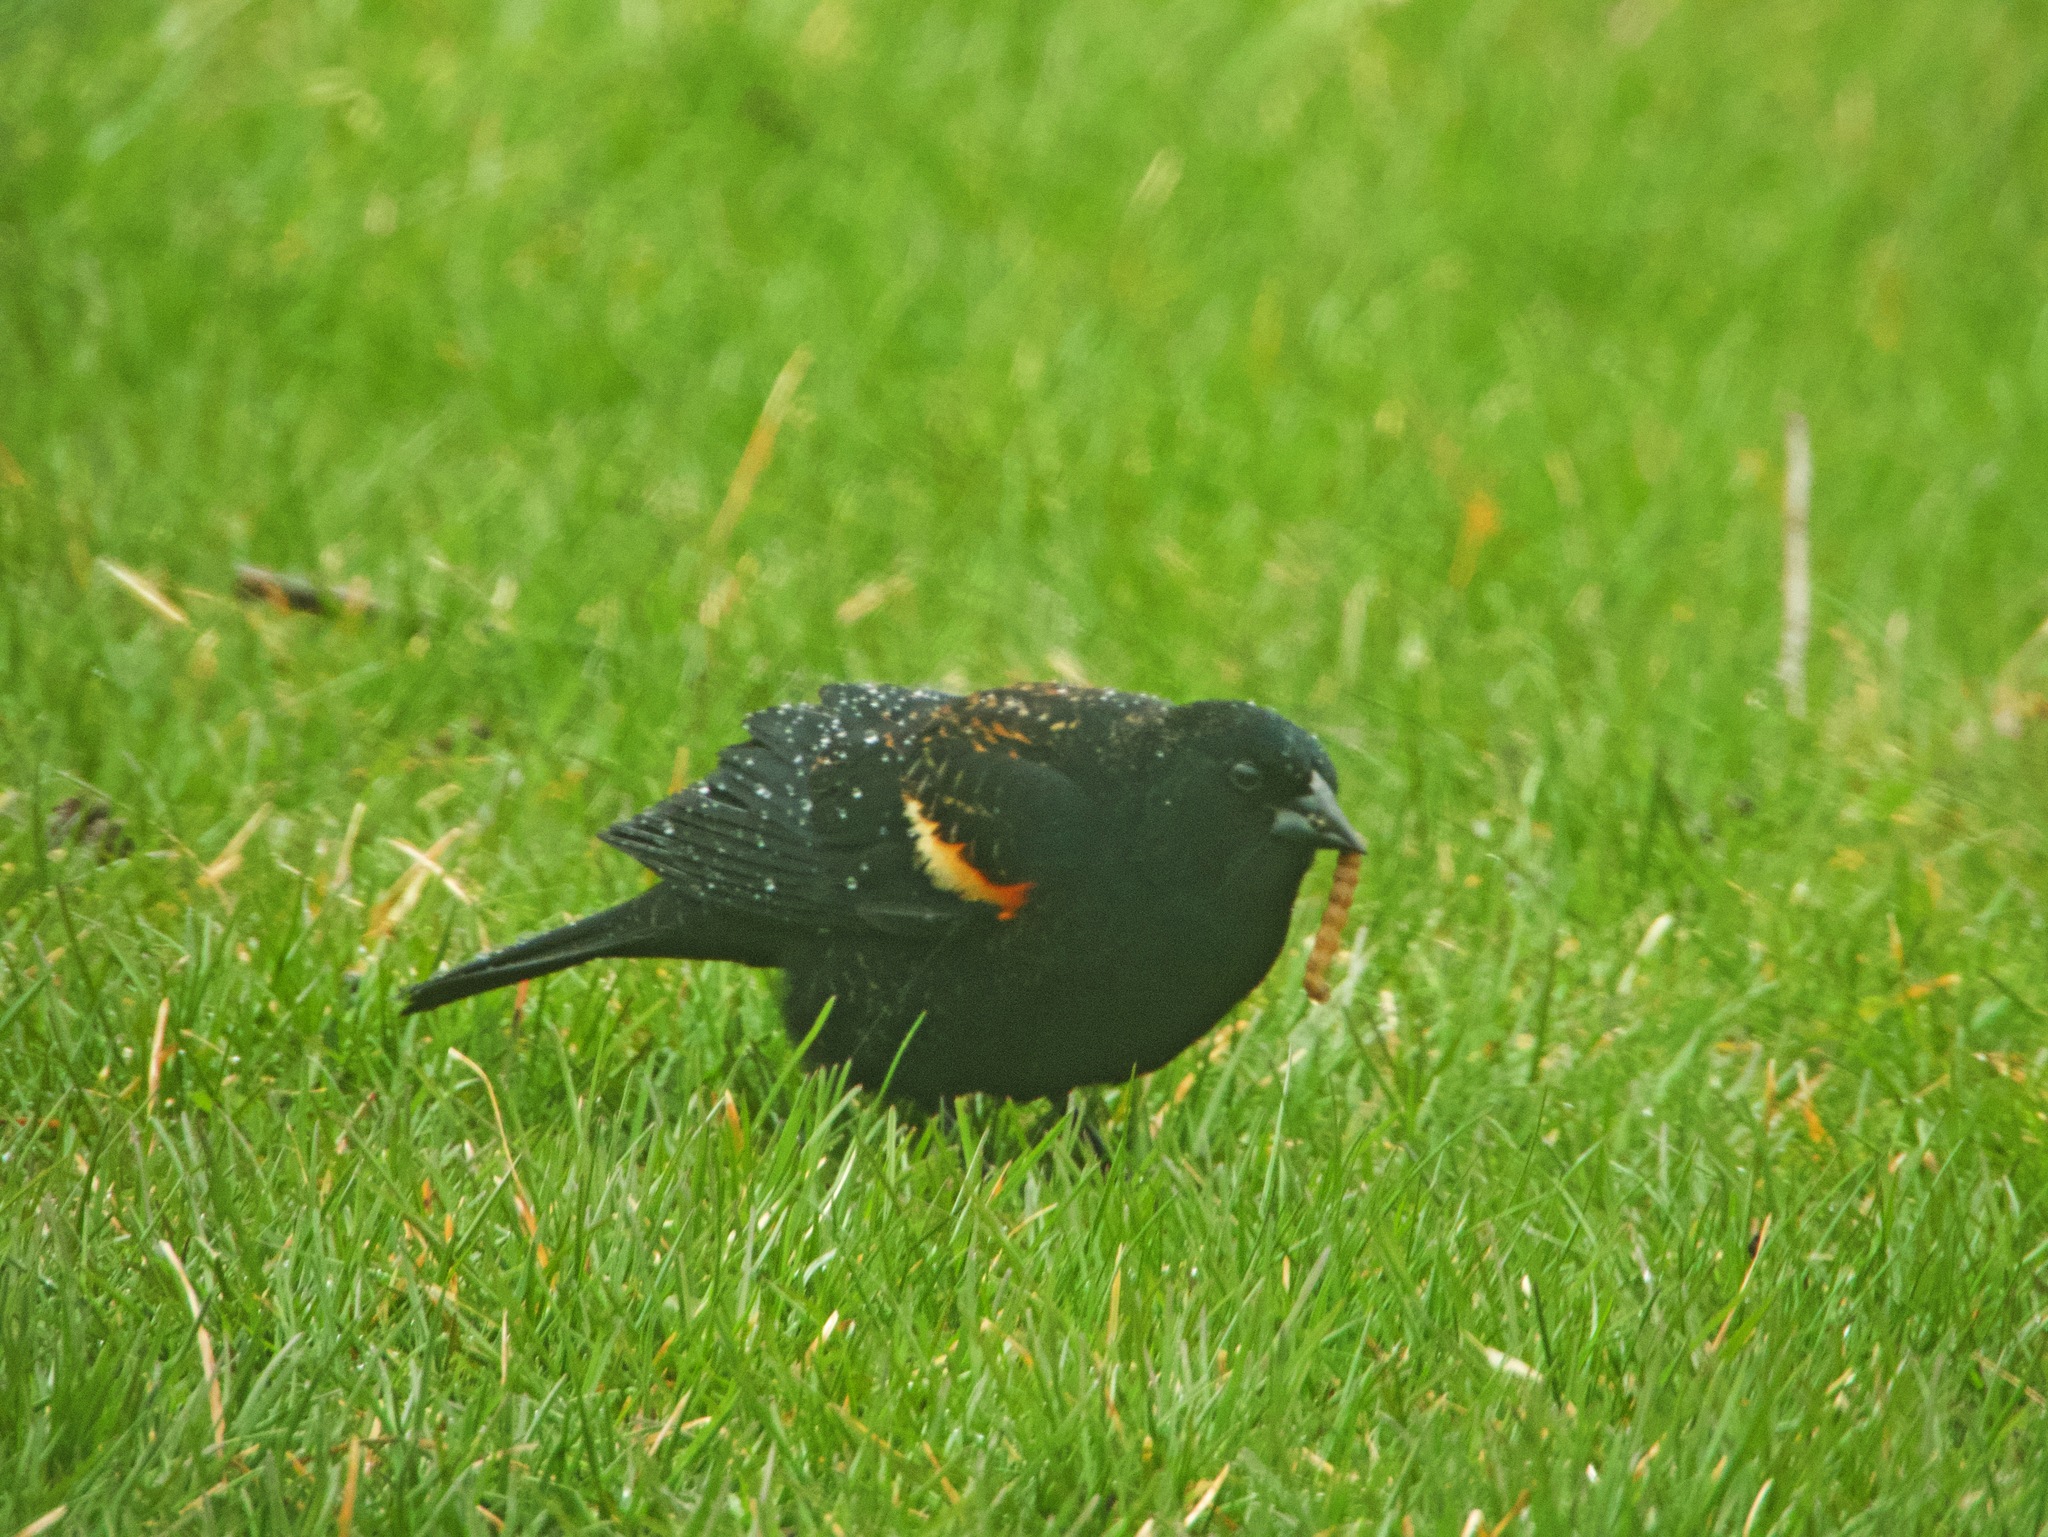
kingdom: Animalia
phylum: Chordata
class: Aves
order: Passeriformes
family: Icteridae
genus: Agelaius
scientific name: Agelaius phoeniceus
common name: Red-winged blackbird
